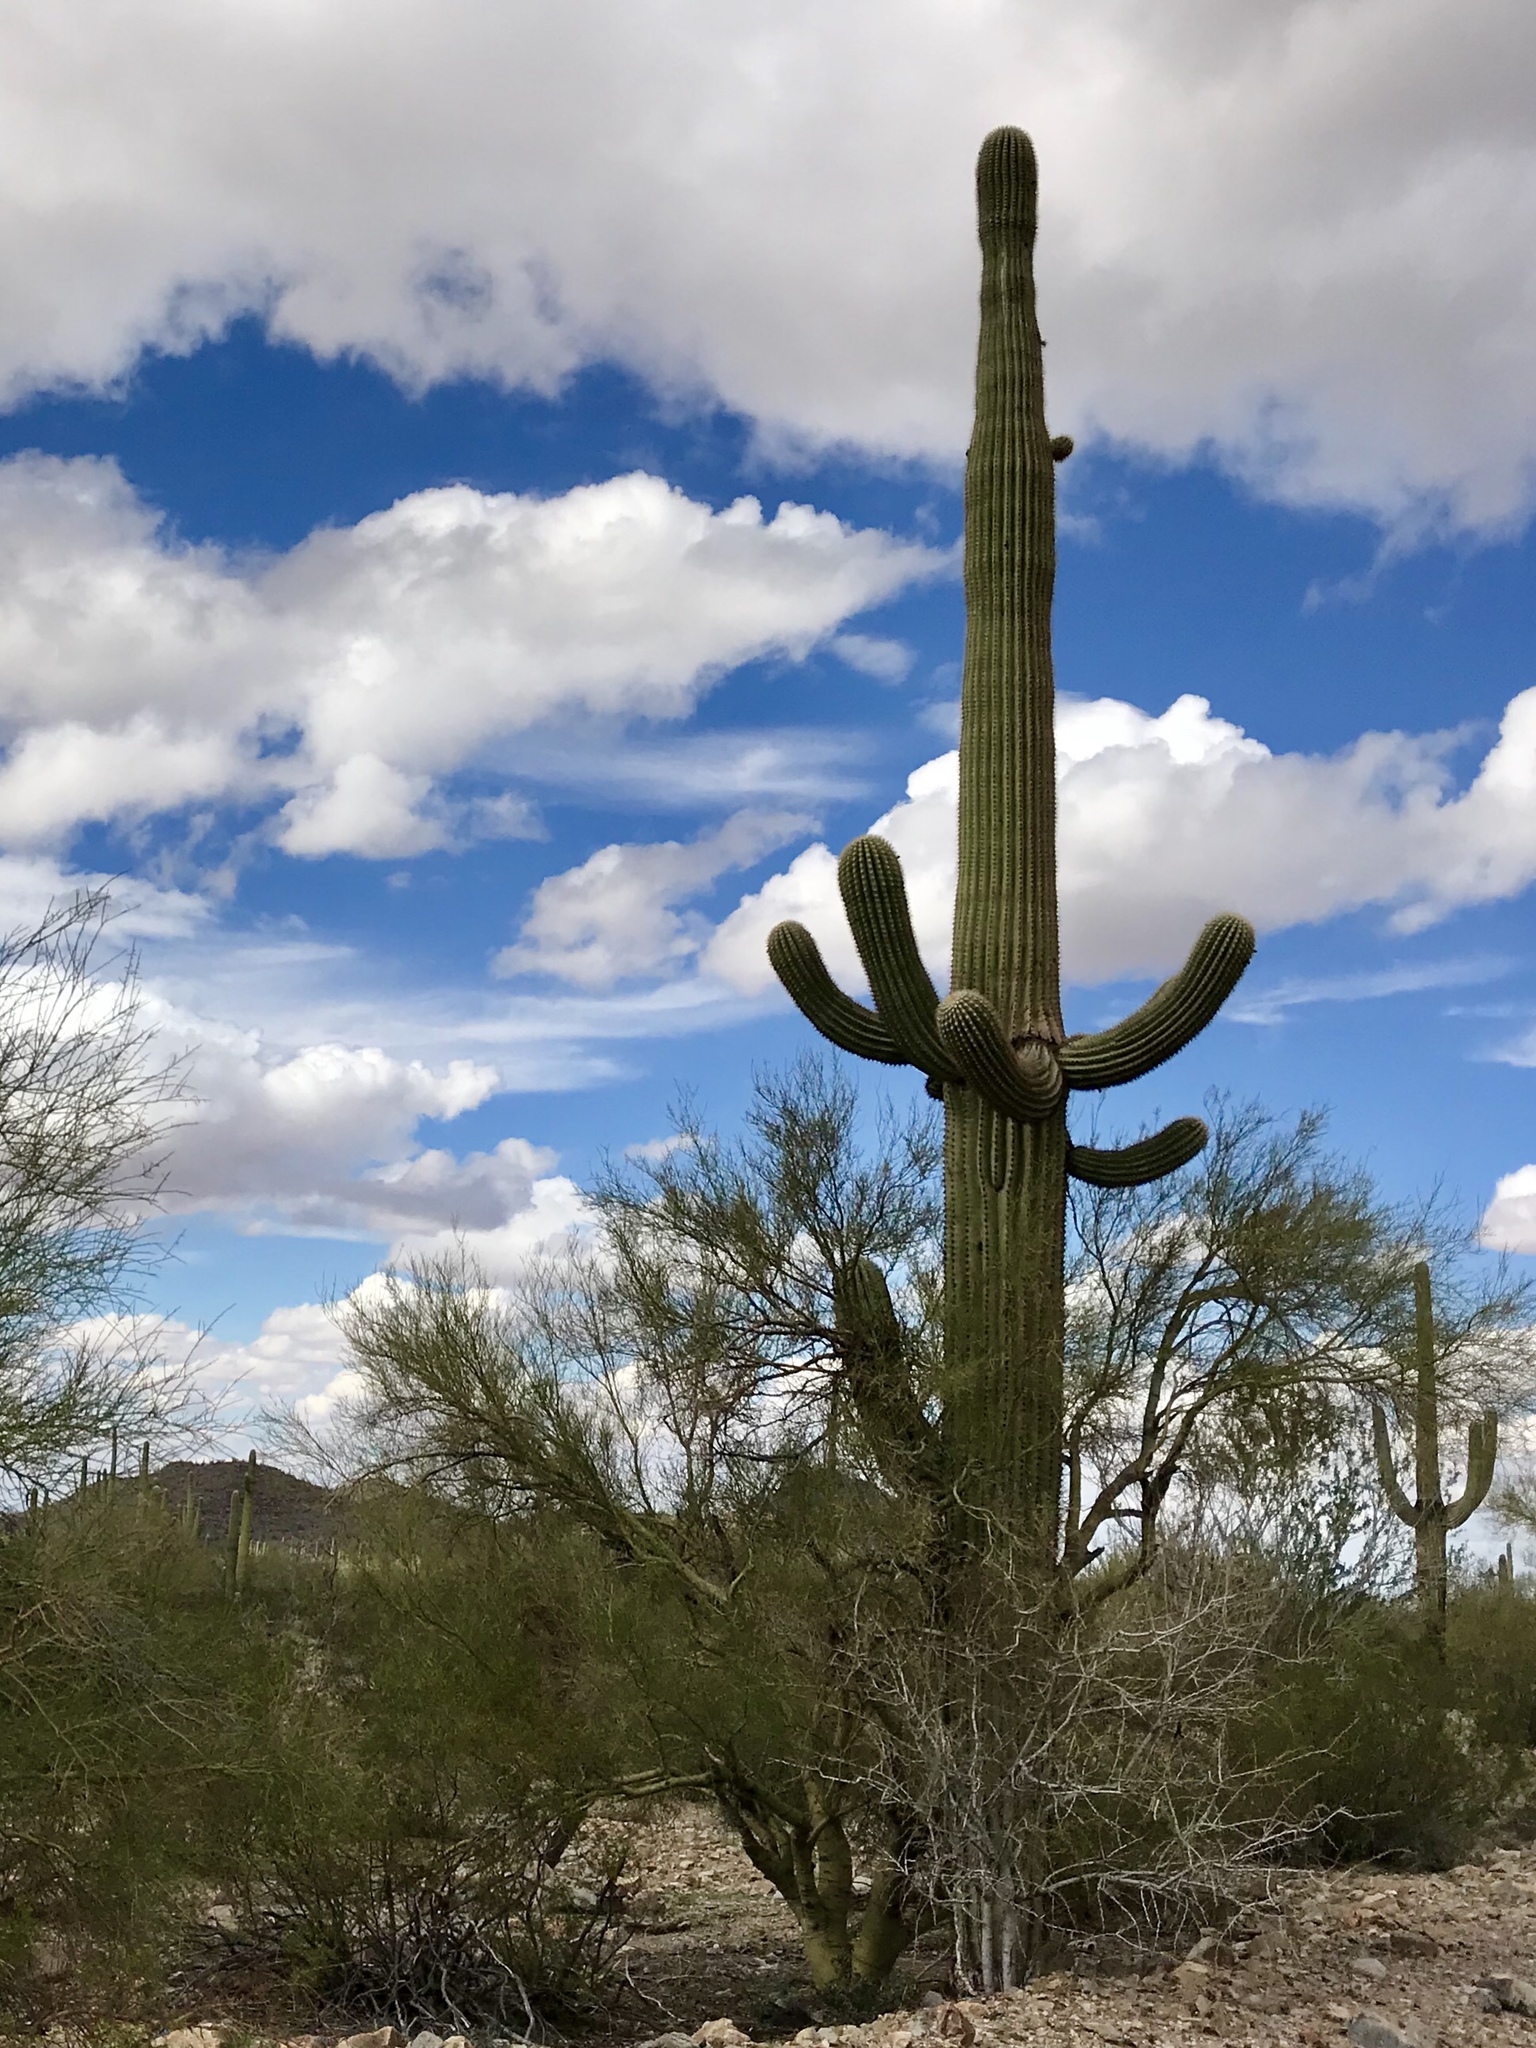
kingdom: Plantae
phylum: Tracheophyta
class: Magnoliopsida
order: Caryophyllales
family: Cactaceae
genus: Carnegiea
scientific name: Carnegiea gigantea
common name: Saguaro
